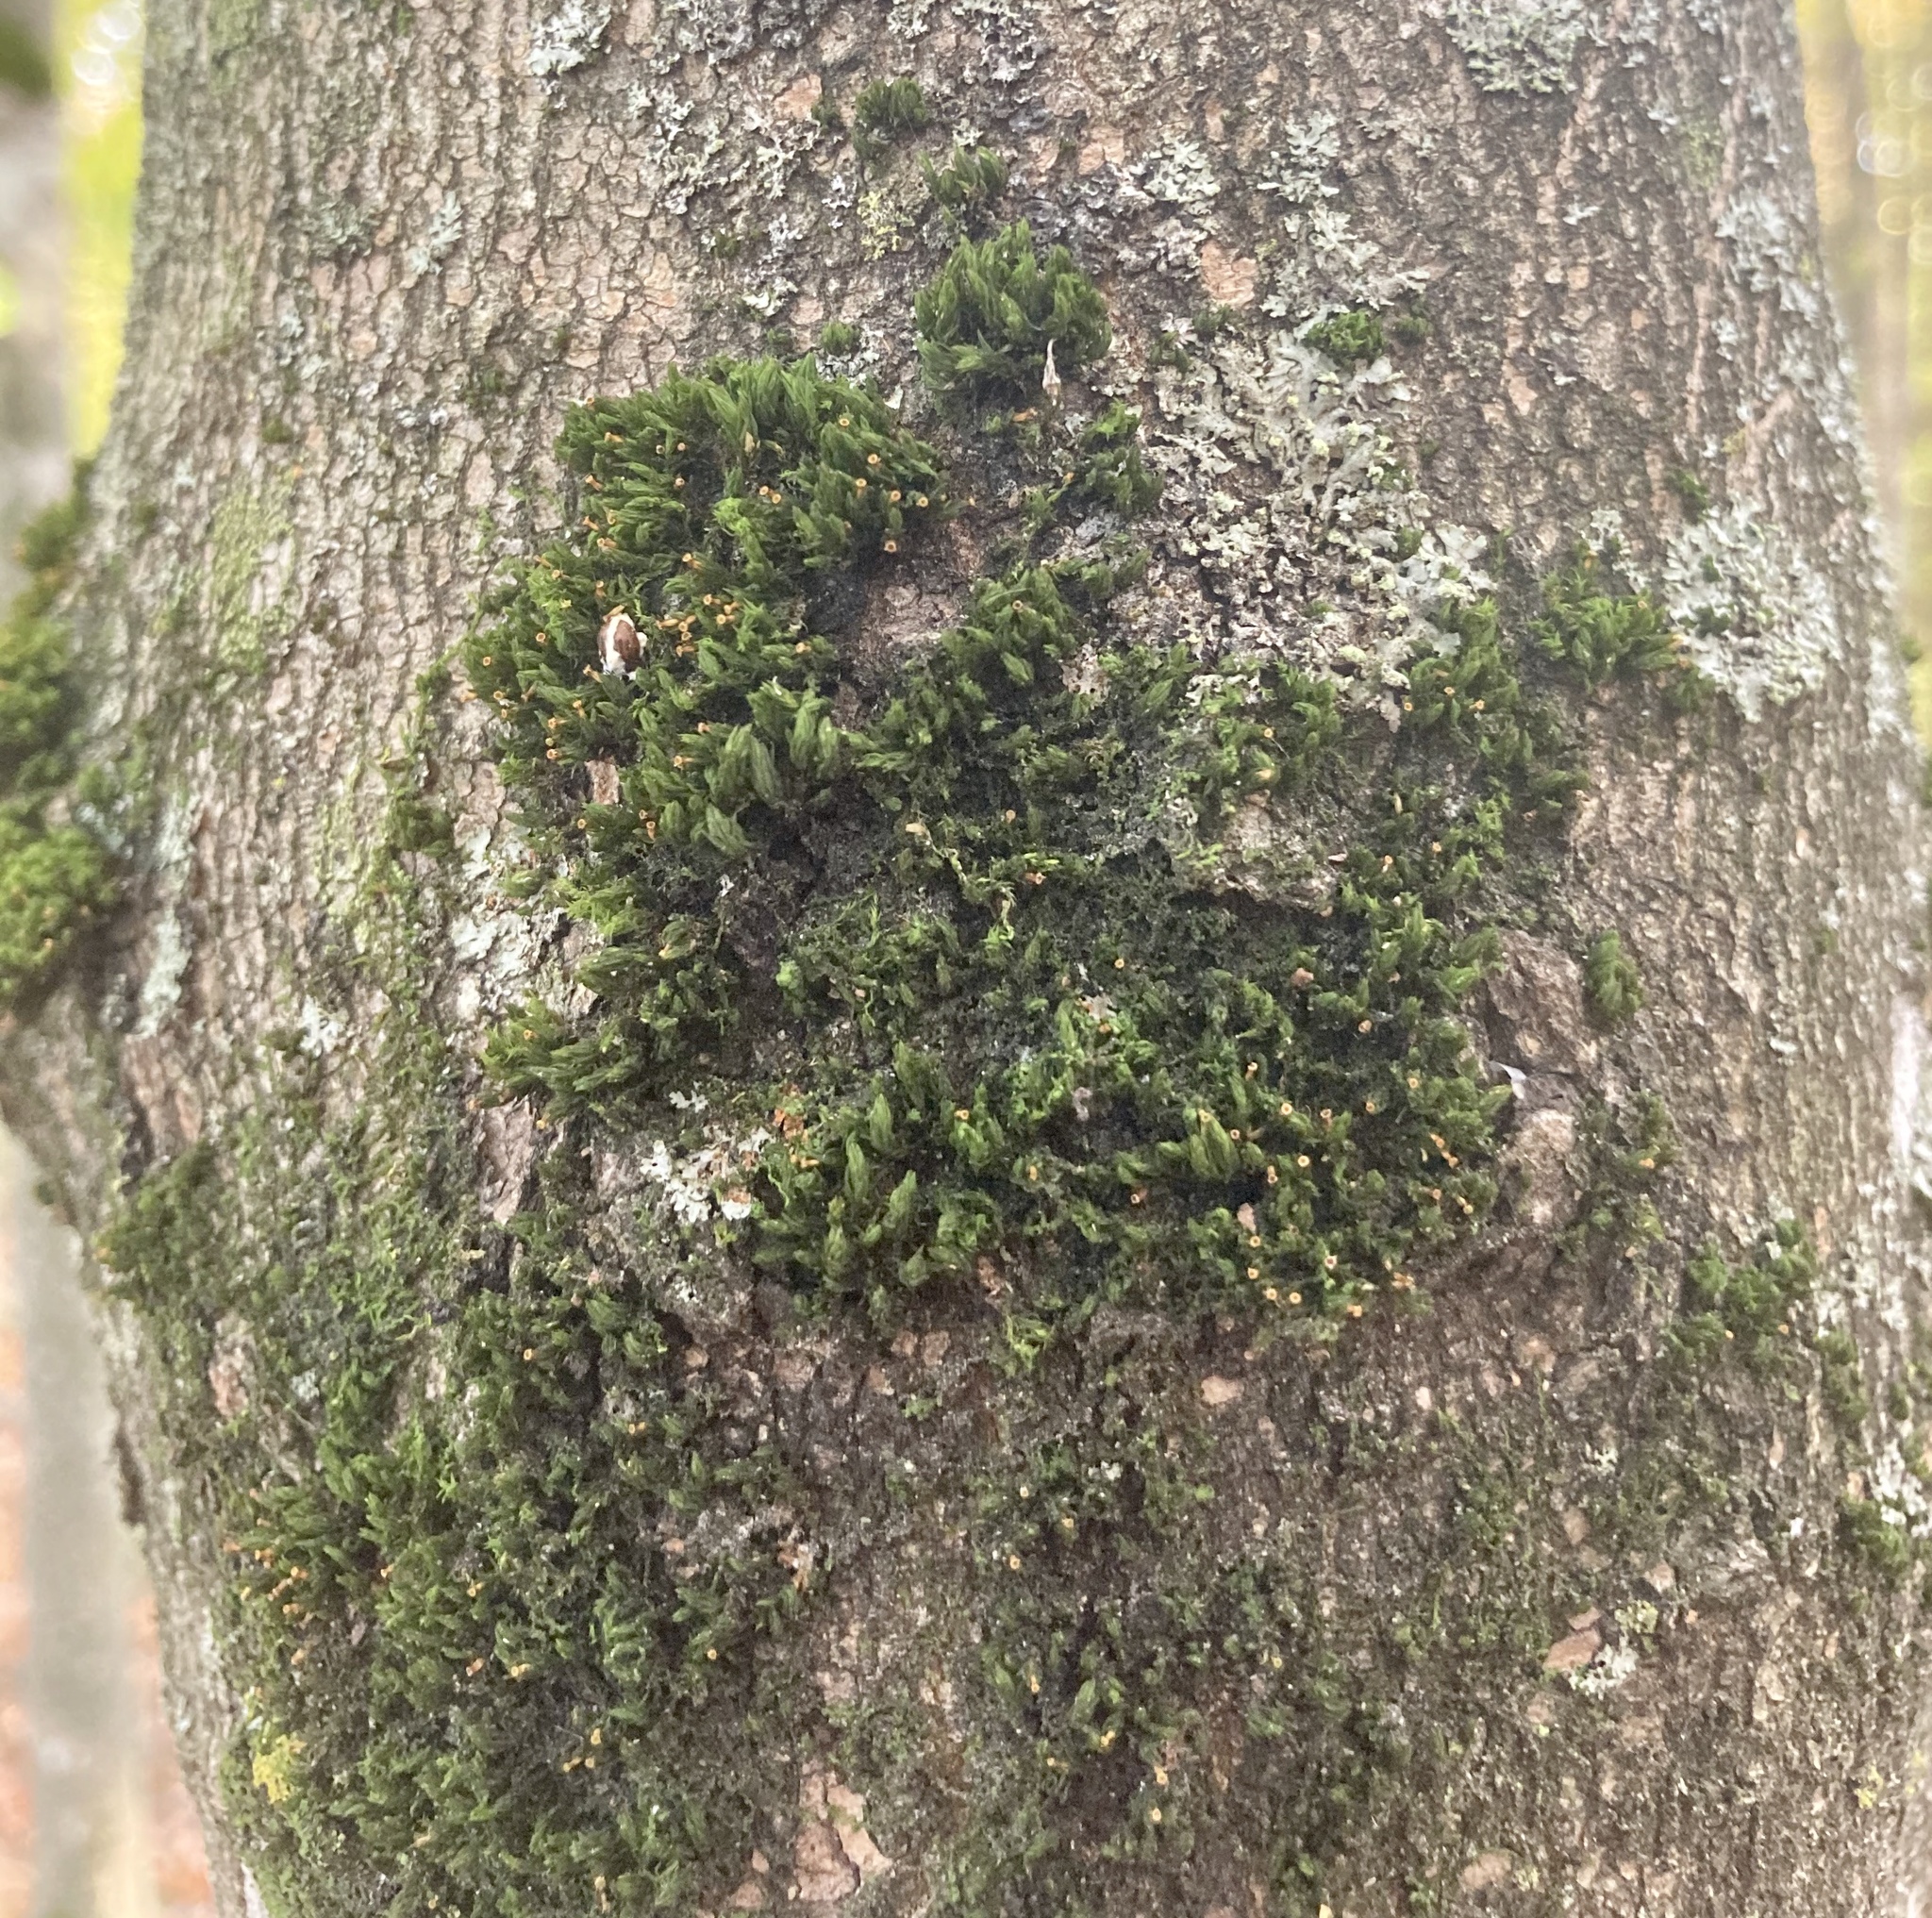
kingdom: Plantae
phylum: Bryophyta
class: Bryopsida
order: Orthotrichales
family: Orthotrichaceae
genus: Ulota
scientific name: Ulota crispa
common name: Crisped pincushion moss
